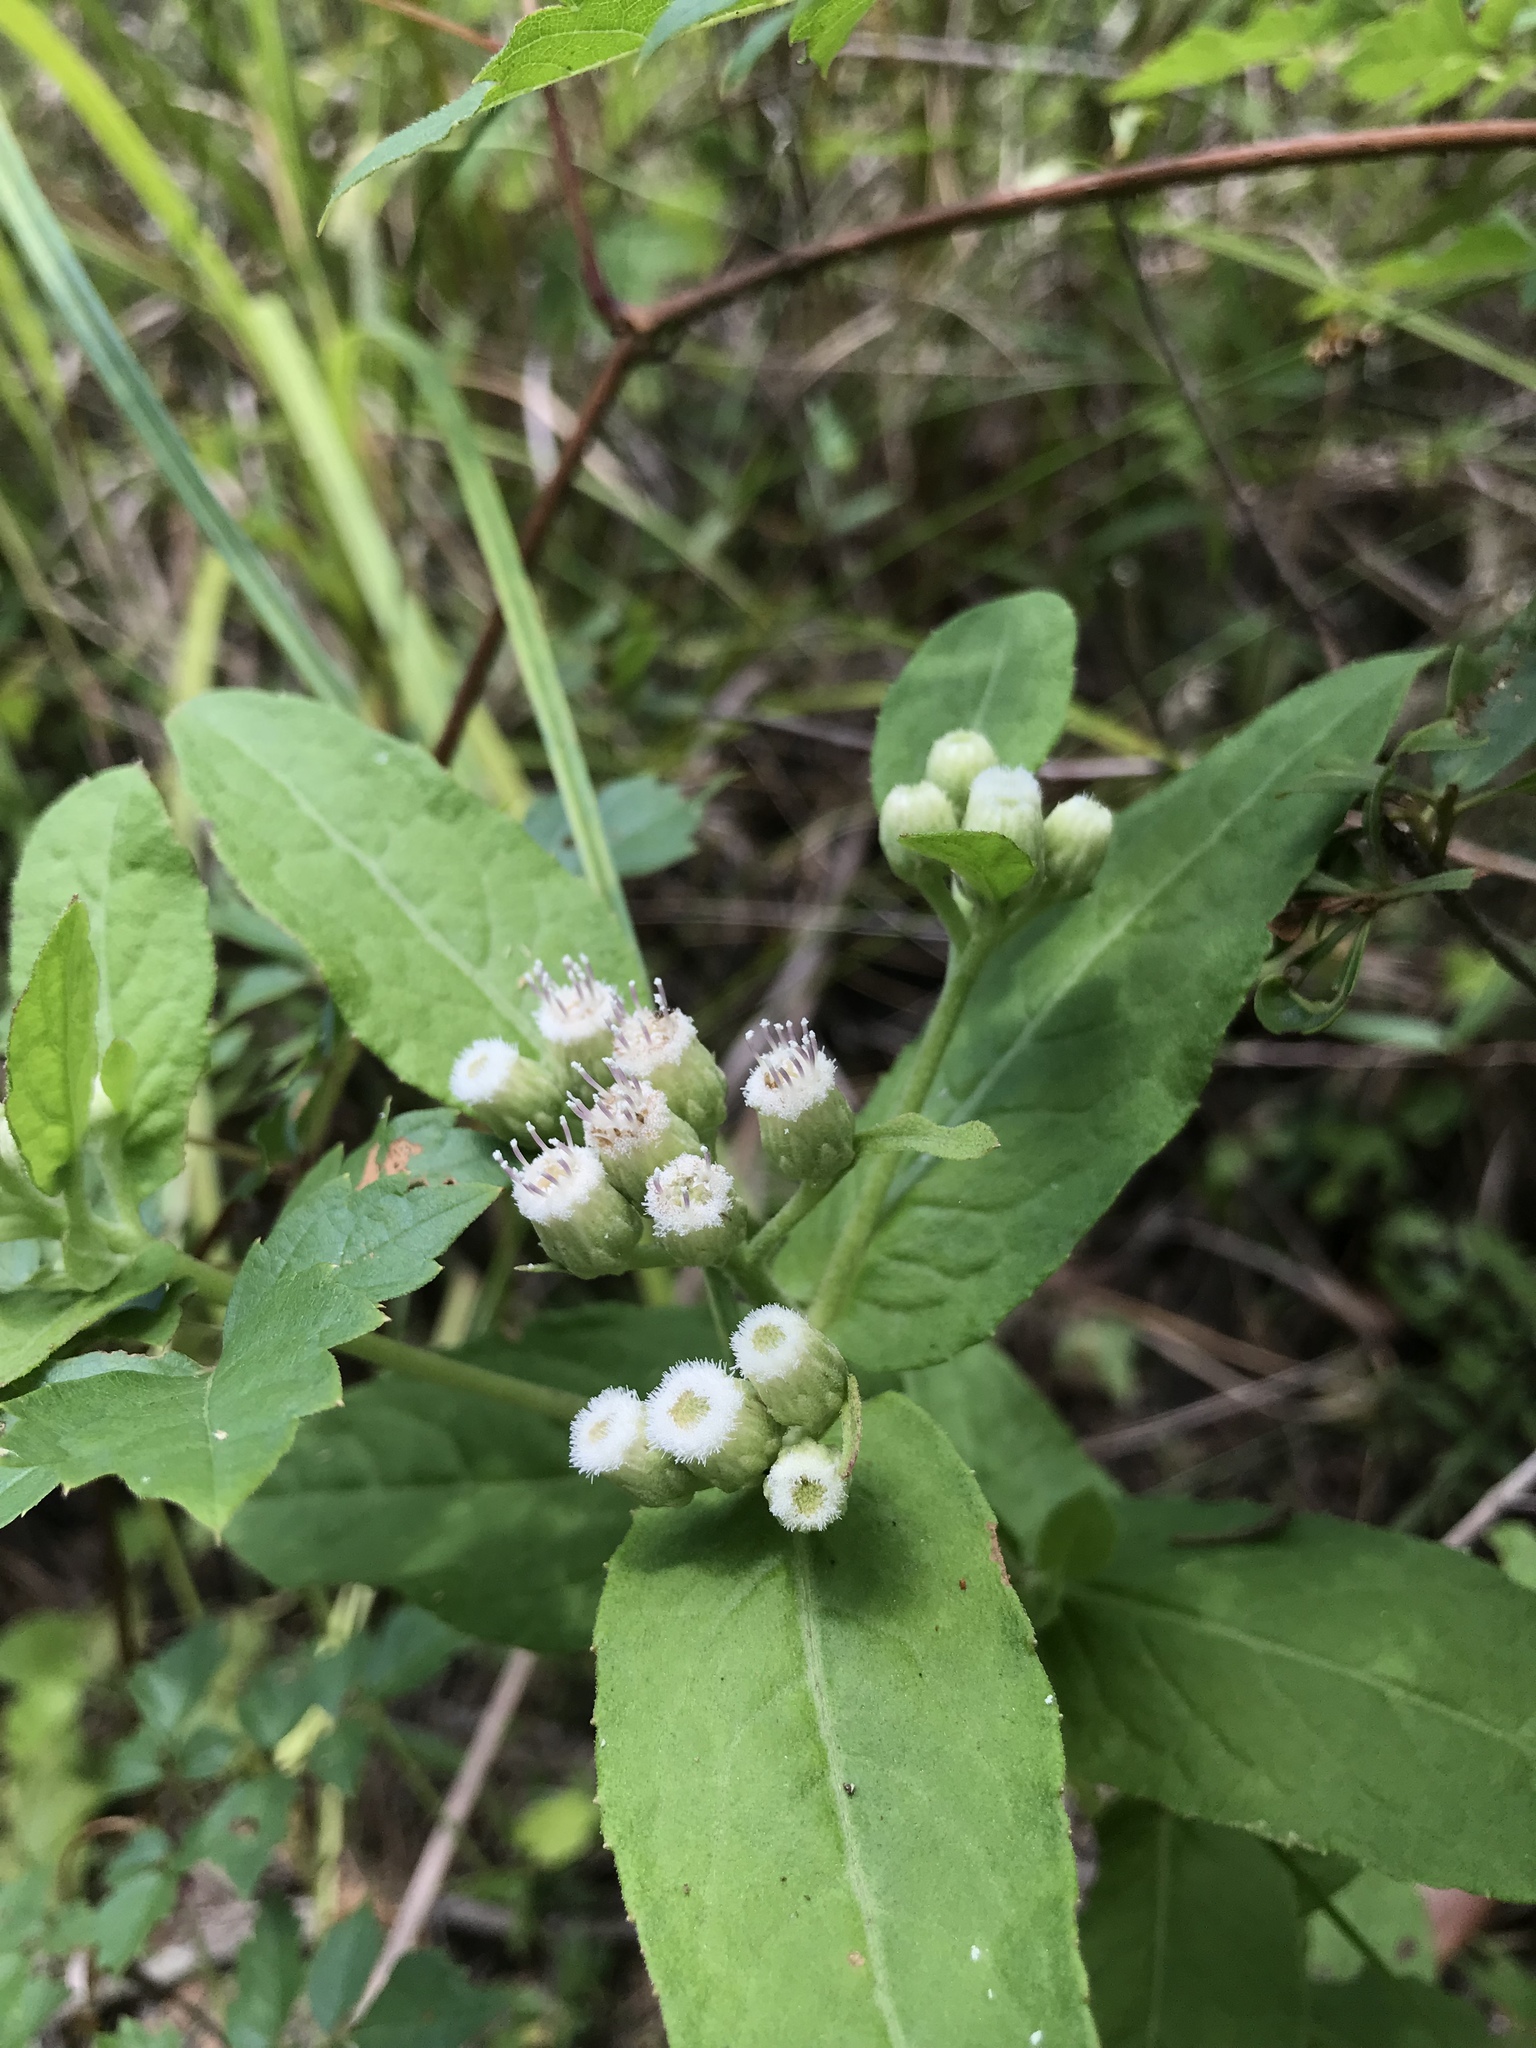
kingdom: Plantae
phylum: Tracheophyta
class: Magnoliopsida
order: Asterales
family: Asteraceae
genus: Pluchea
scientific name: Pluchea foetida
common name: Stinking camphorweed
